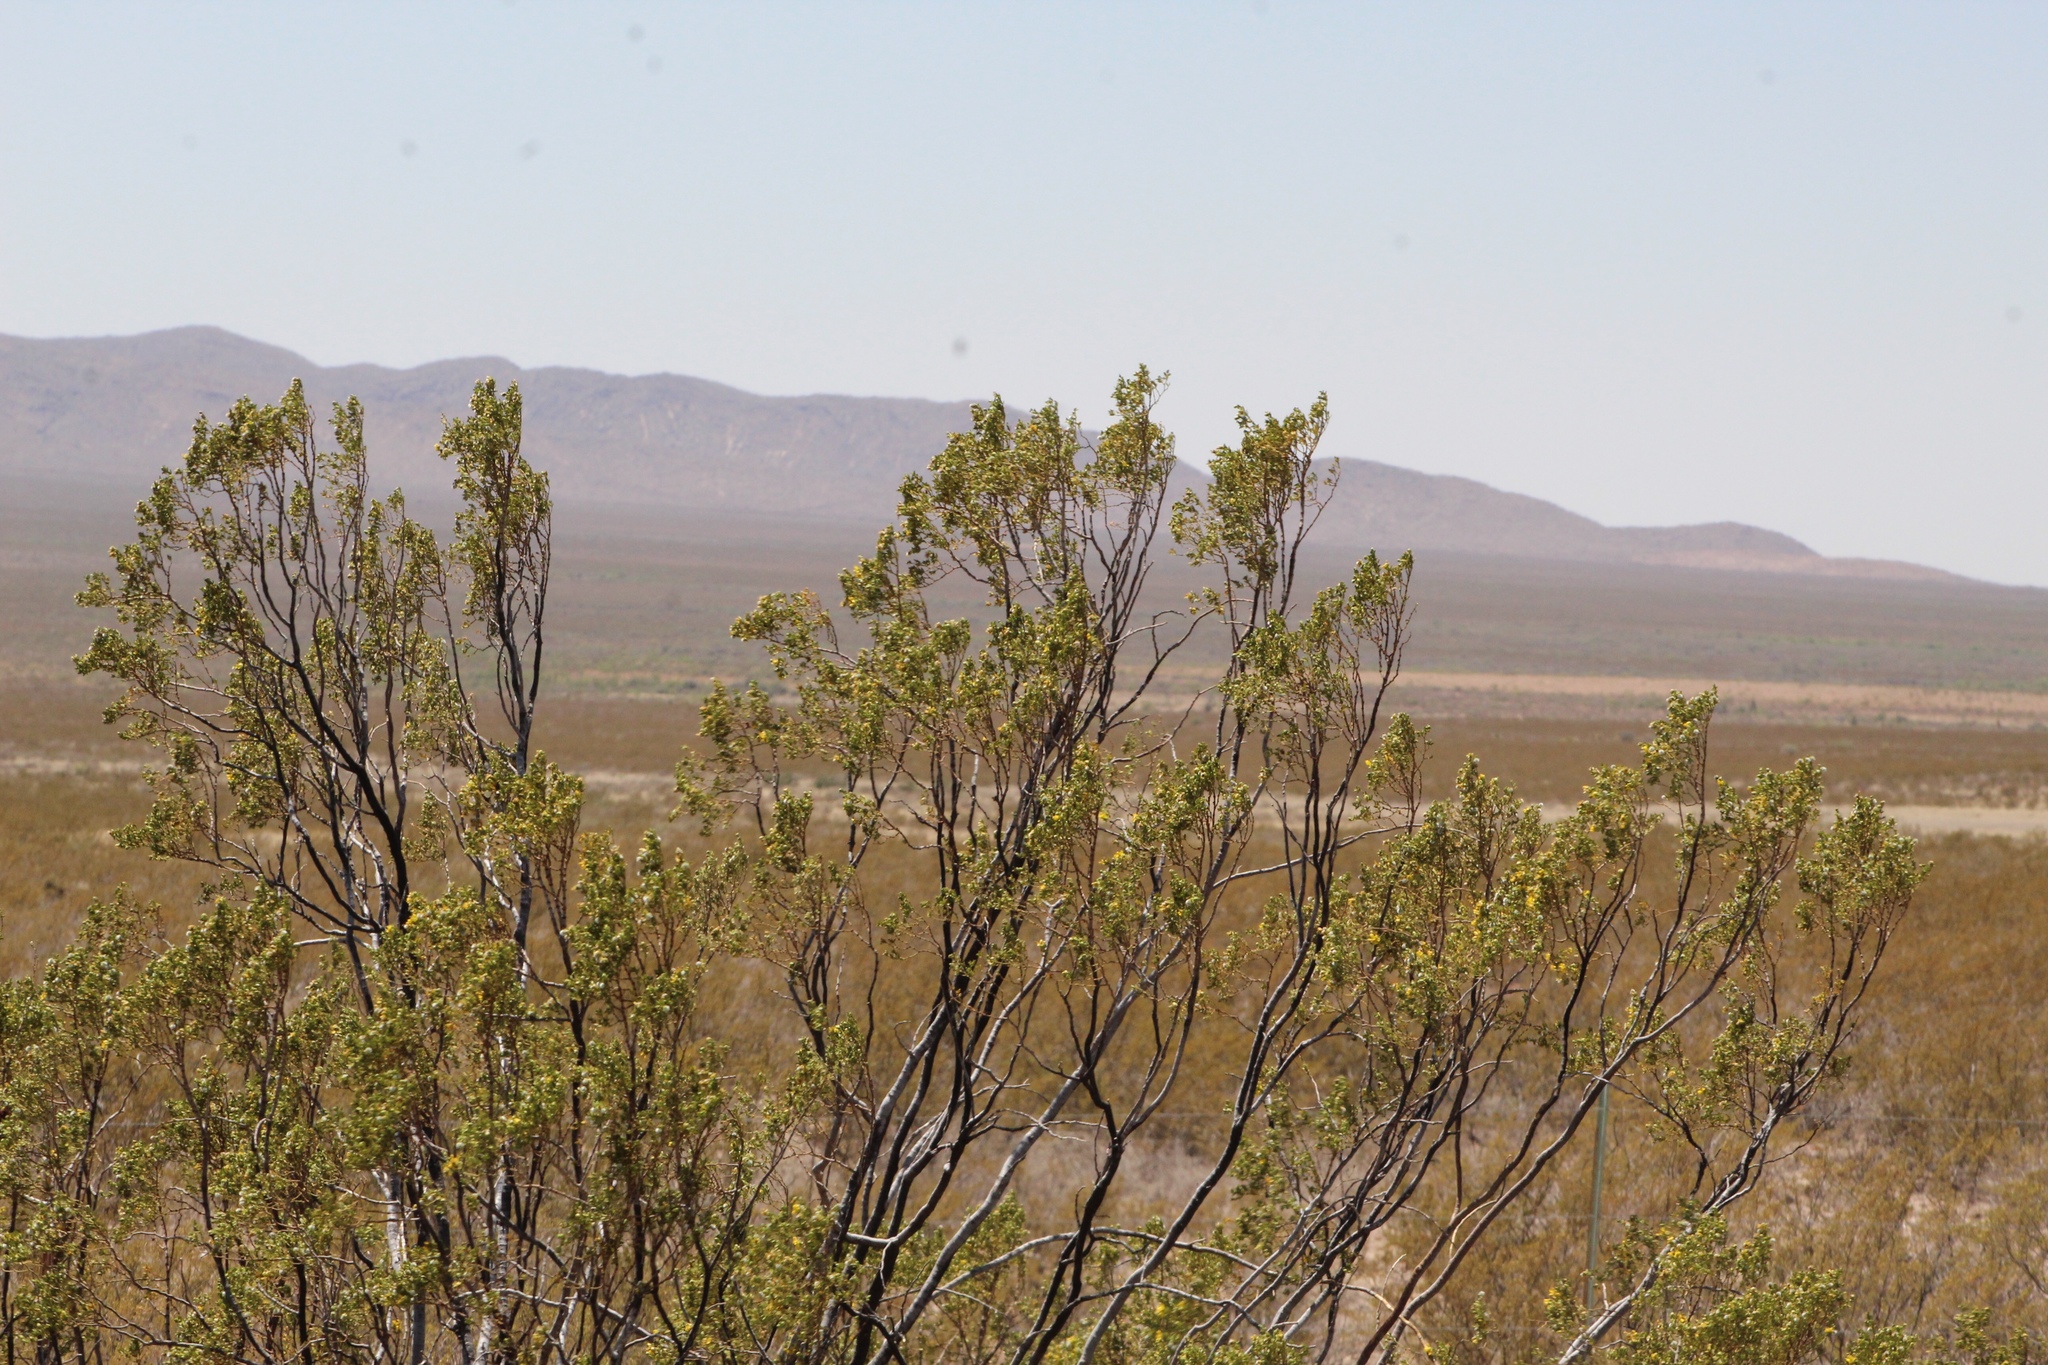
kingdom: Plantae
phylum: Tracheophyta
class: Magnoliopsida
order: Zygophyllales
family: Zygophyllaceae
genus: Larrea
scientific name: Larrea tridentata
